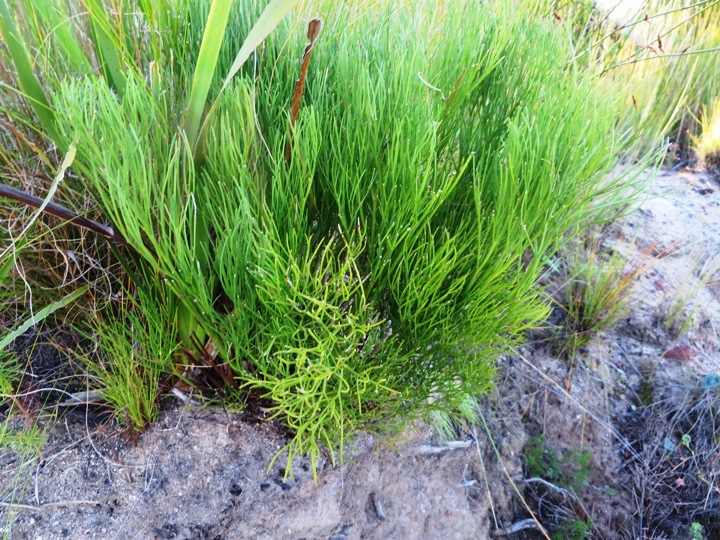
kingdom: Plantae
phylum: Tracheophyta
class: Magnoliopsida
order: Apiales
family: Apiaceae
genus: Nanobubon
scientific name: Nanobubon strictum
